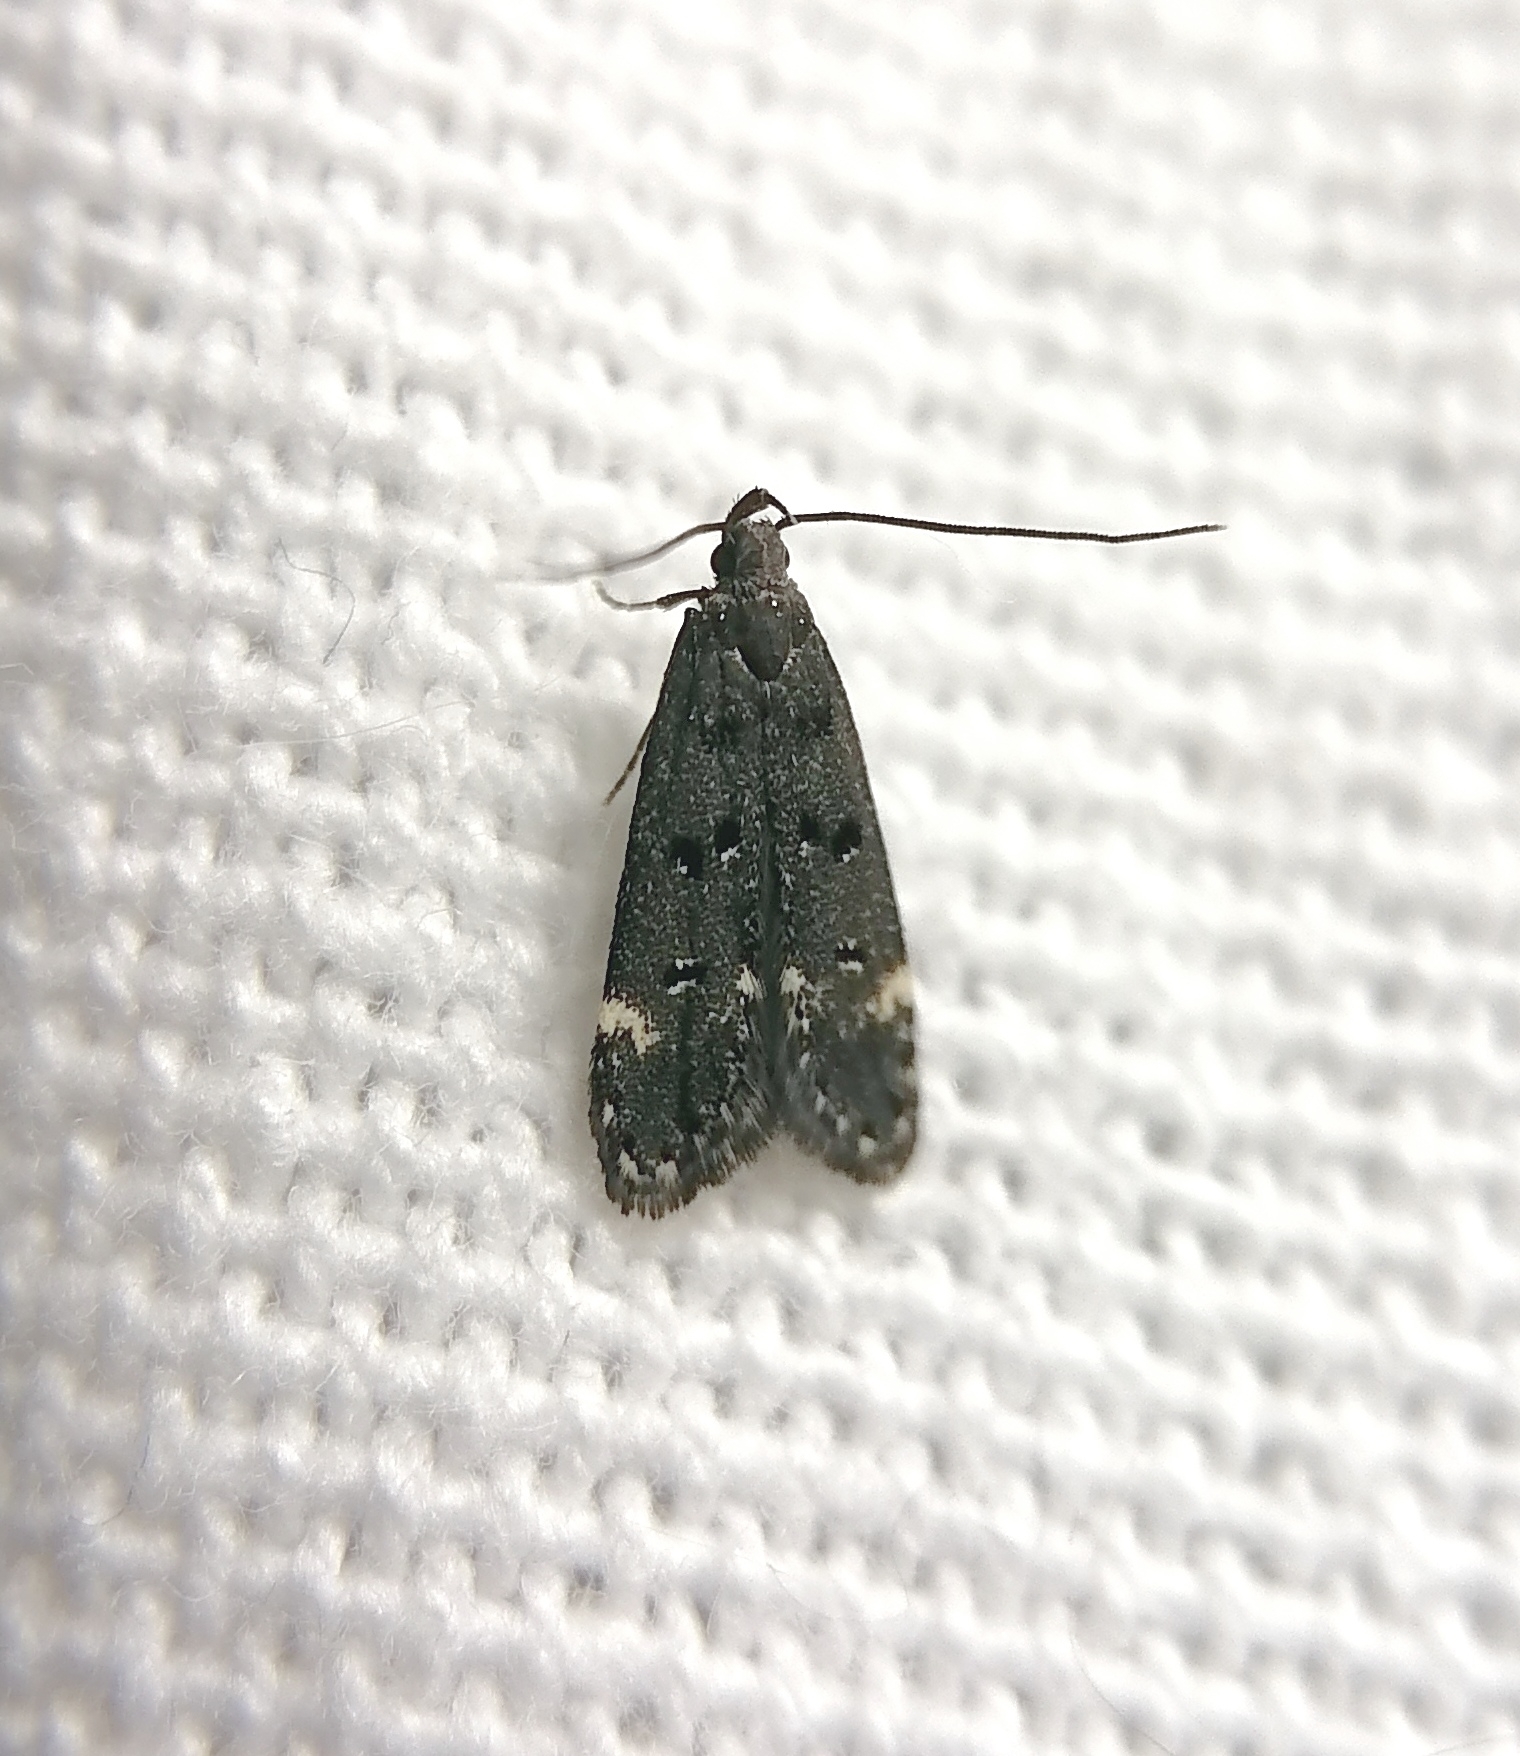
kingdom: Animalia
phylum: Arthropoda
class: Insecta
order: Lepidoptera
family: Gelechiidae
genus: Acanthophila
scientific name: Acanthophila alacella
